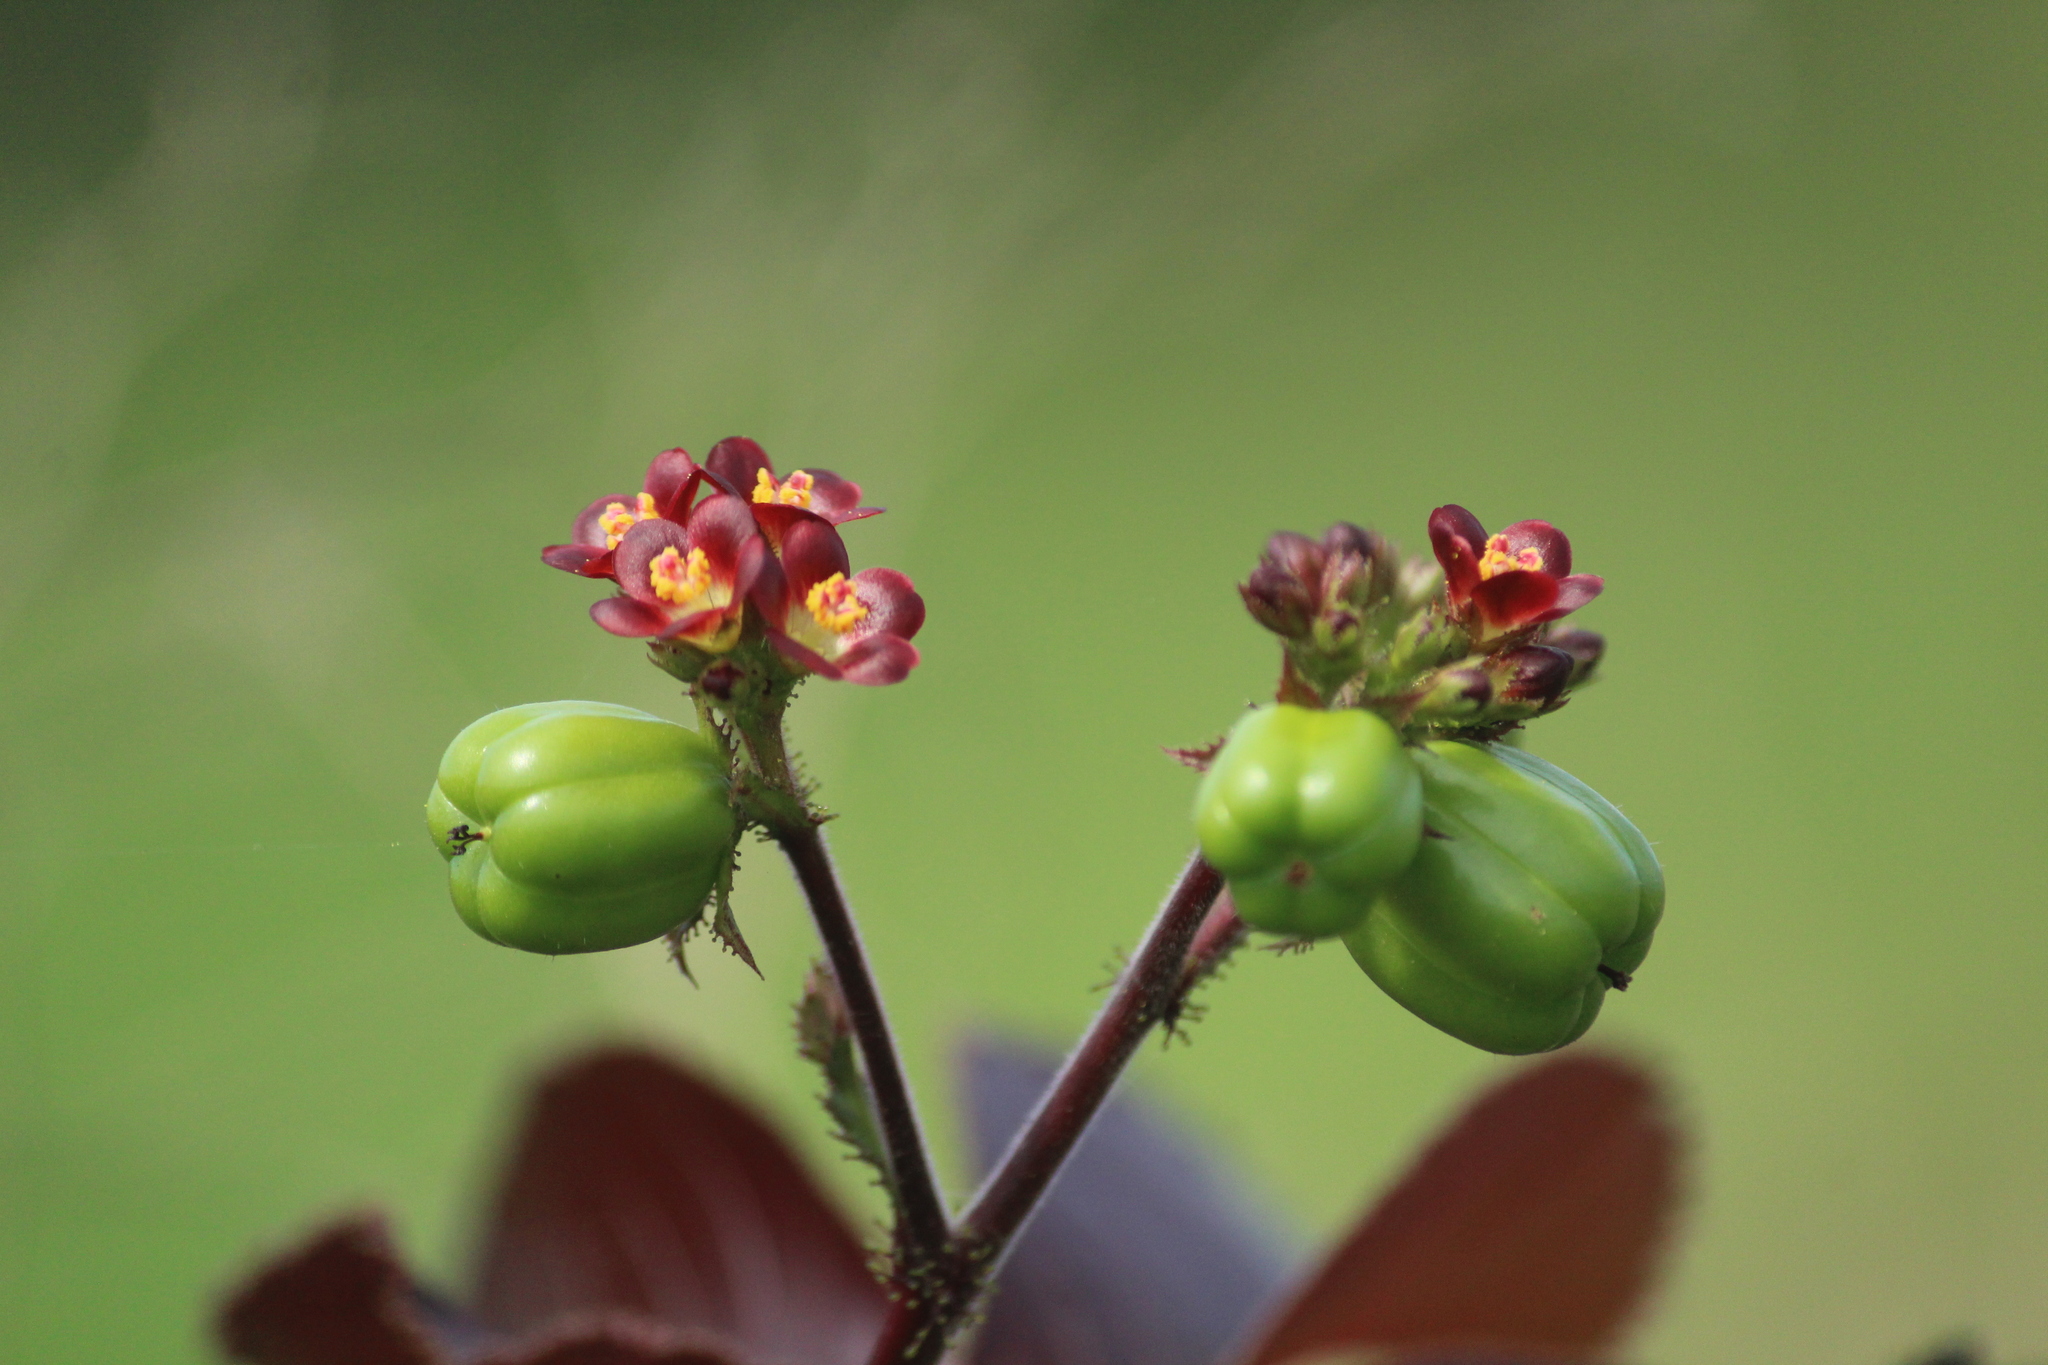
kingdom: Plantae
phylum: Tracheophyta
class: Magnoliopsida
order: Malpighiales
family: Euphorbiaceae
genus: Jatropha
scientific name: Jatropha gossypiifolia
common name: Bellyache bush
